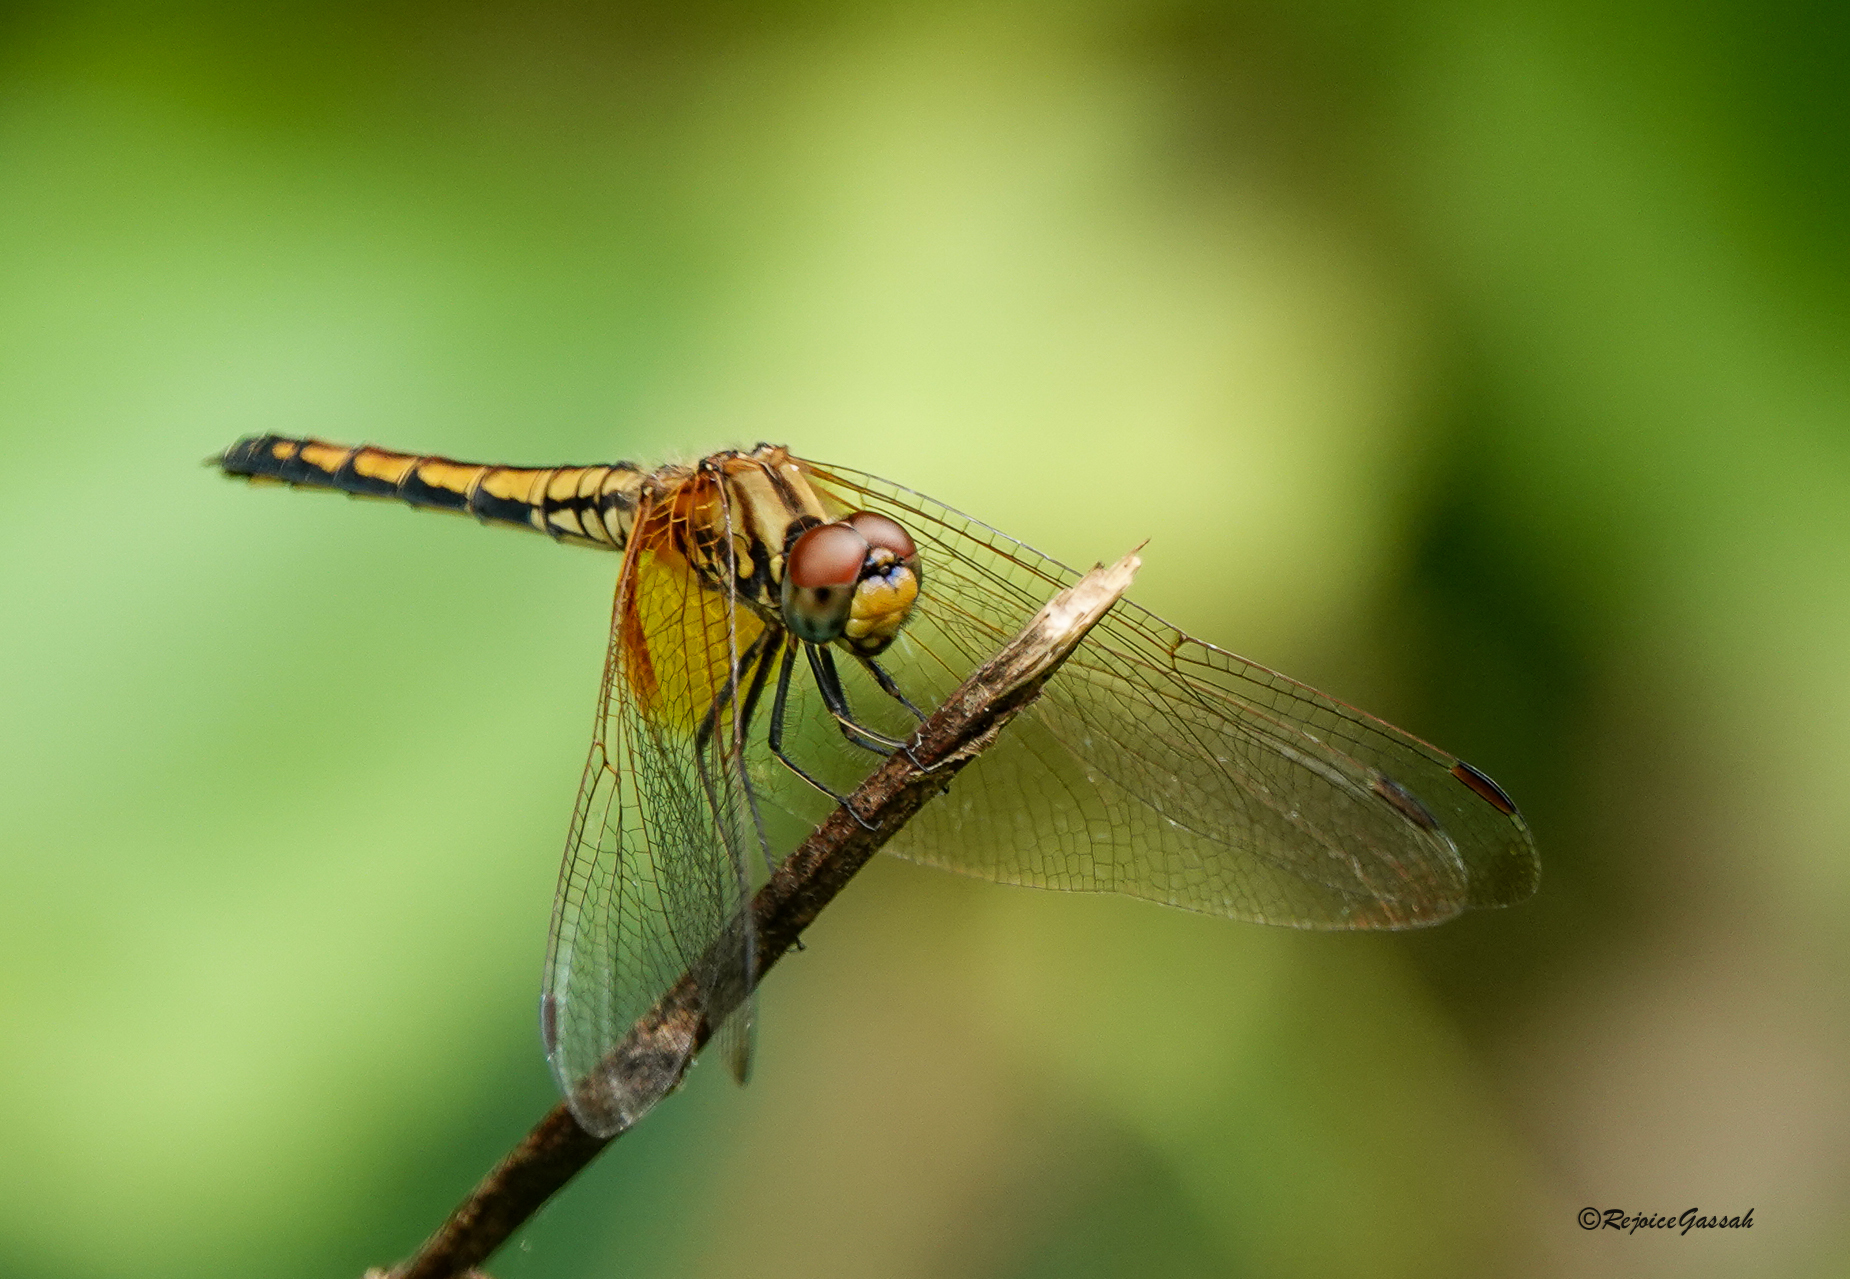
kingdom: Animalia
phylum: Arthropoda
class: Insecta
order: Odonata
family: Libellulidae
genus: Trithemis
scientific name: Trithemis aurora
